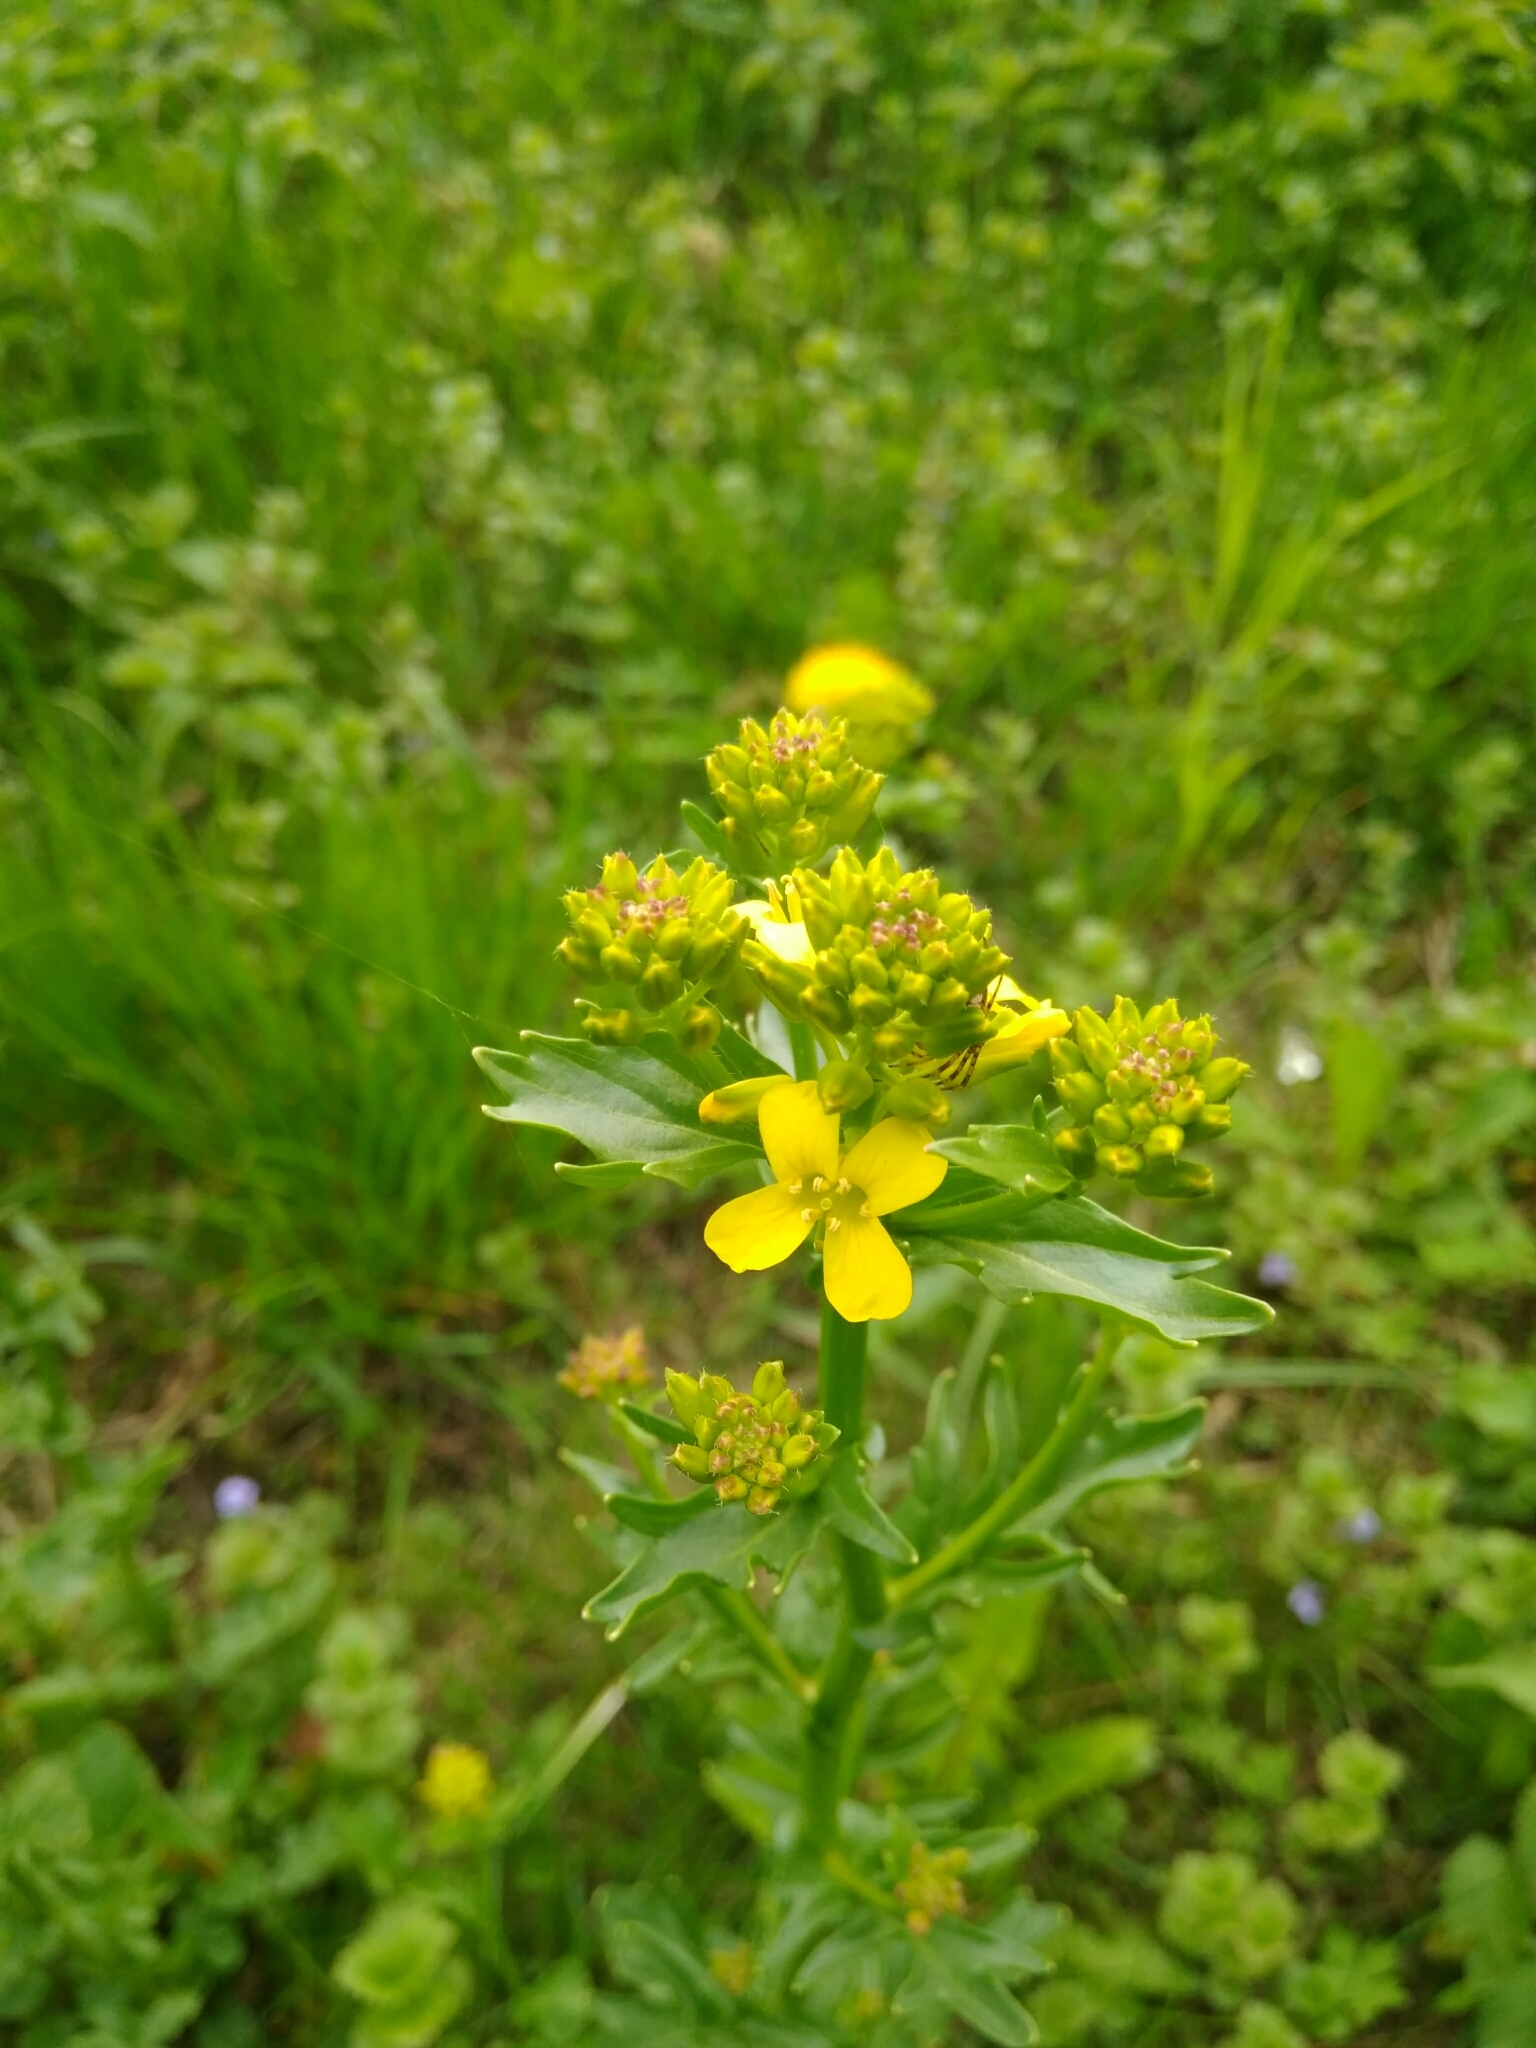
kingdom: Plantae
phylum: Tracheophyta
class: Magnoliopsida
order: Brassicales
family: Brassicaceae
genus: Barbarea
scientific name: Barbarea vulgaris
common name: Cressy-greens
